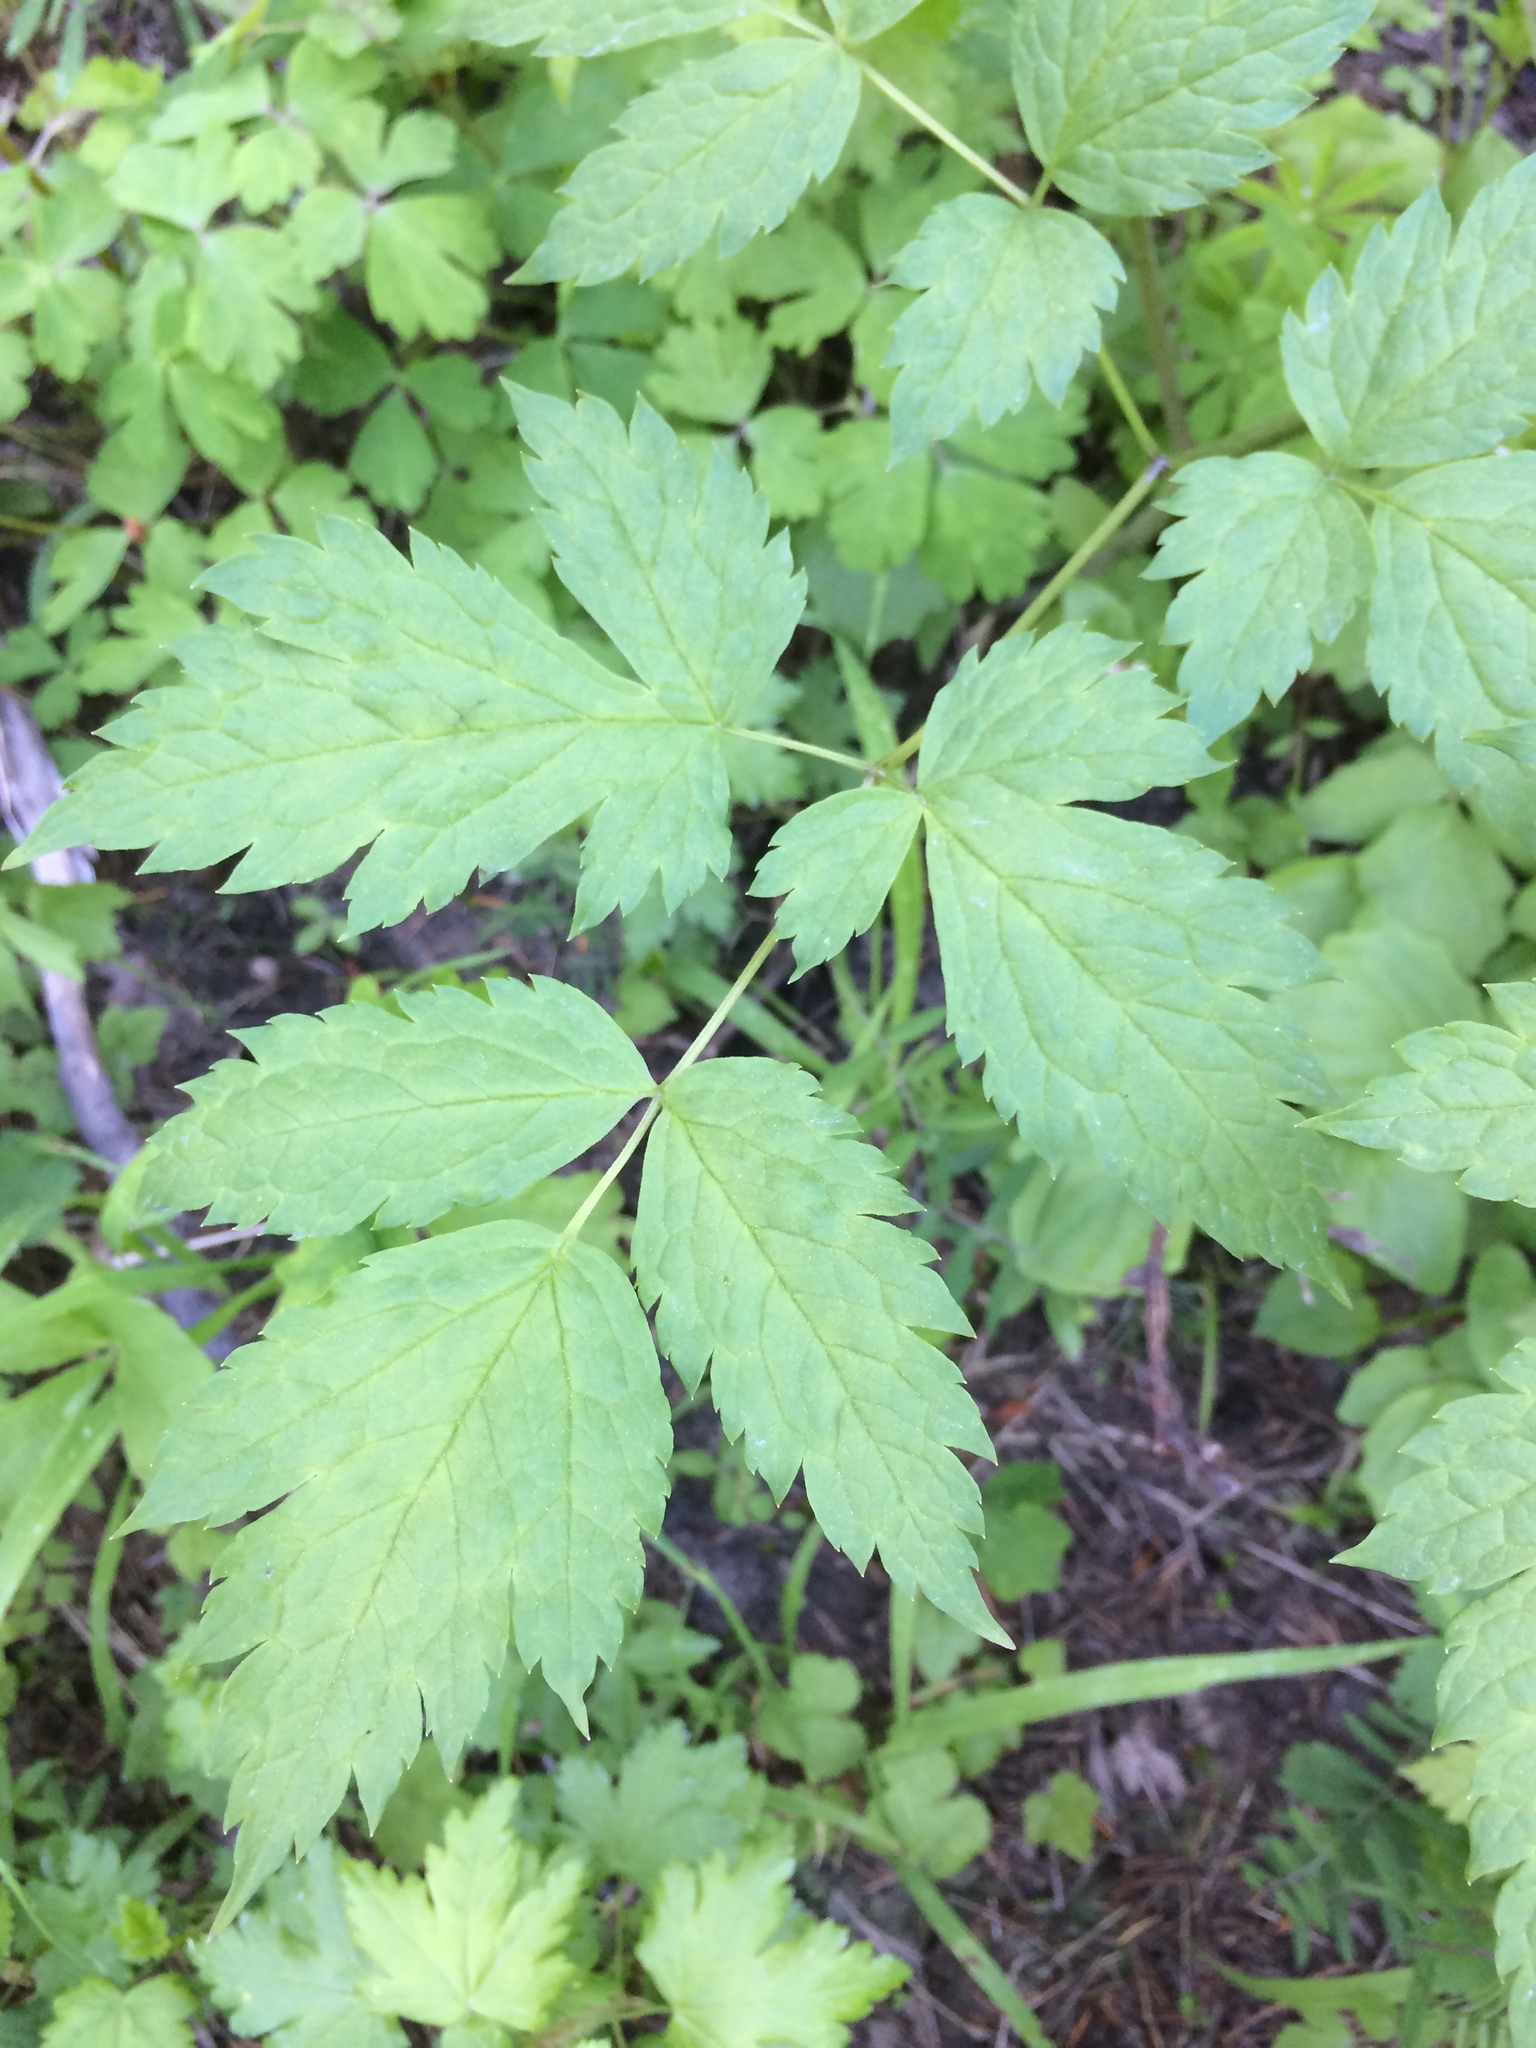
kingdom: Plantae
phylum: Tracheophyta
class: Magnoliopsida
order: Ranunculales
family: Ranunculaceae
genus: Actaea
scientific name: Actaea rubra
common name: Red baneberry
